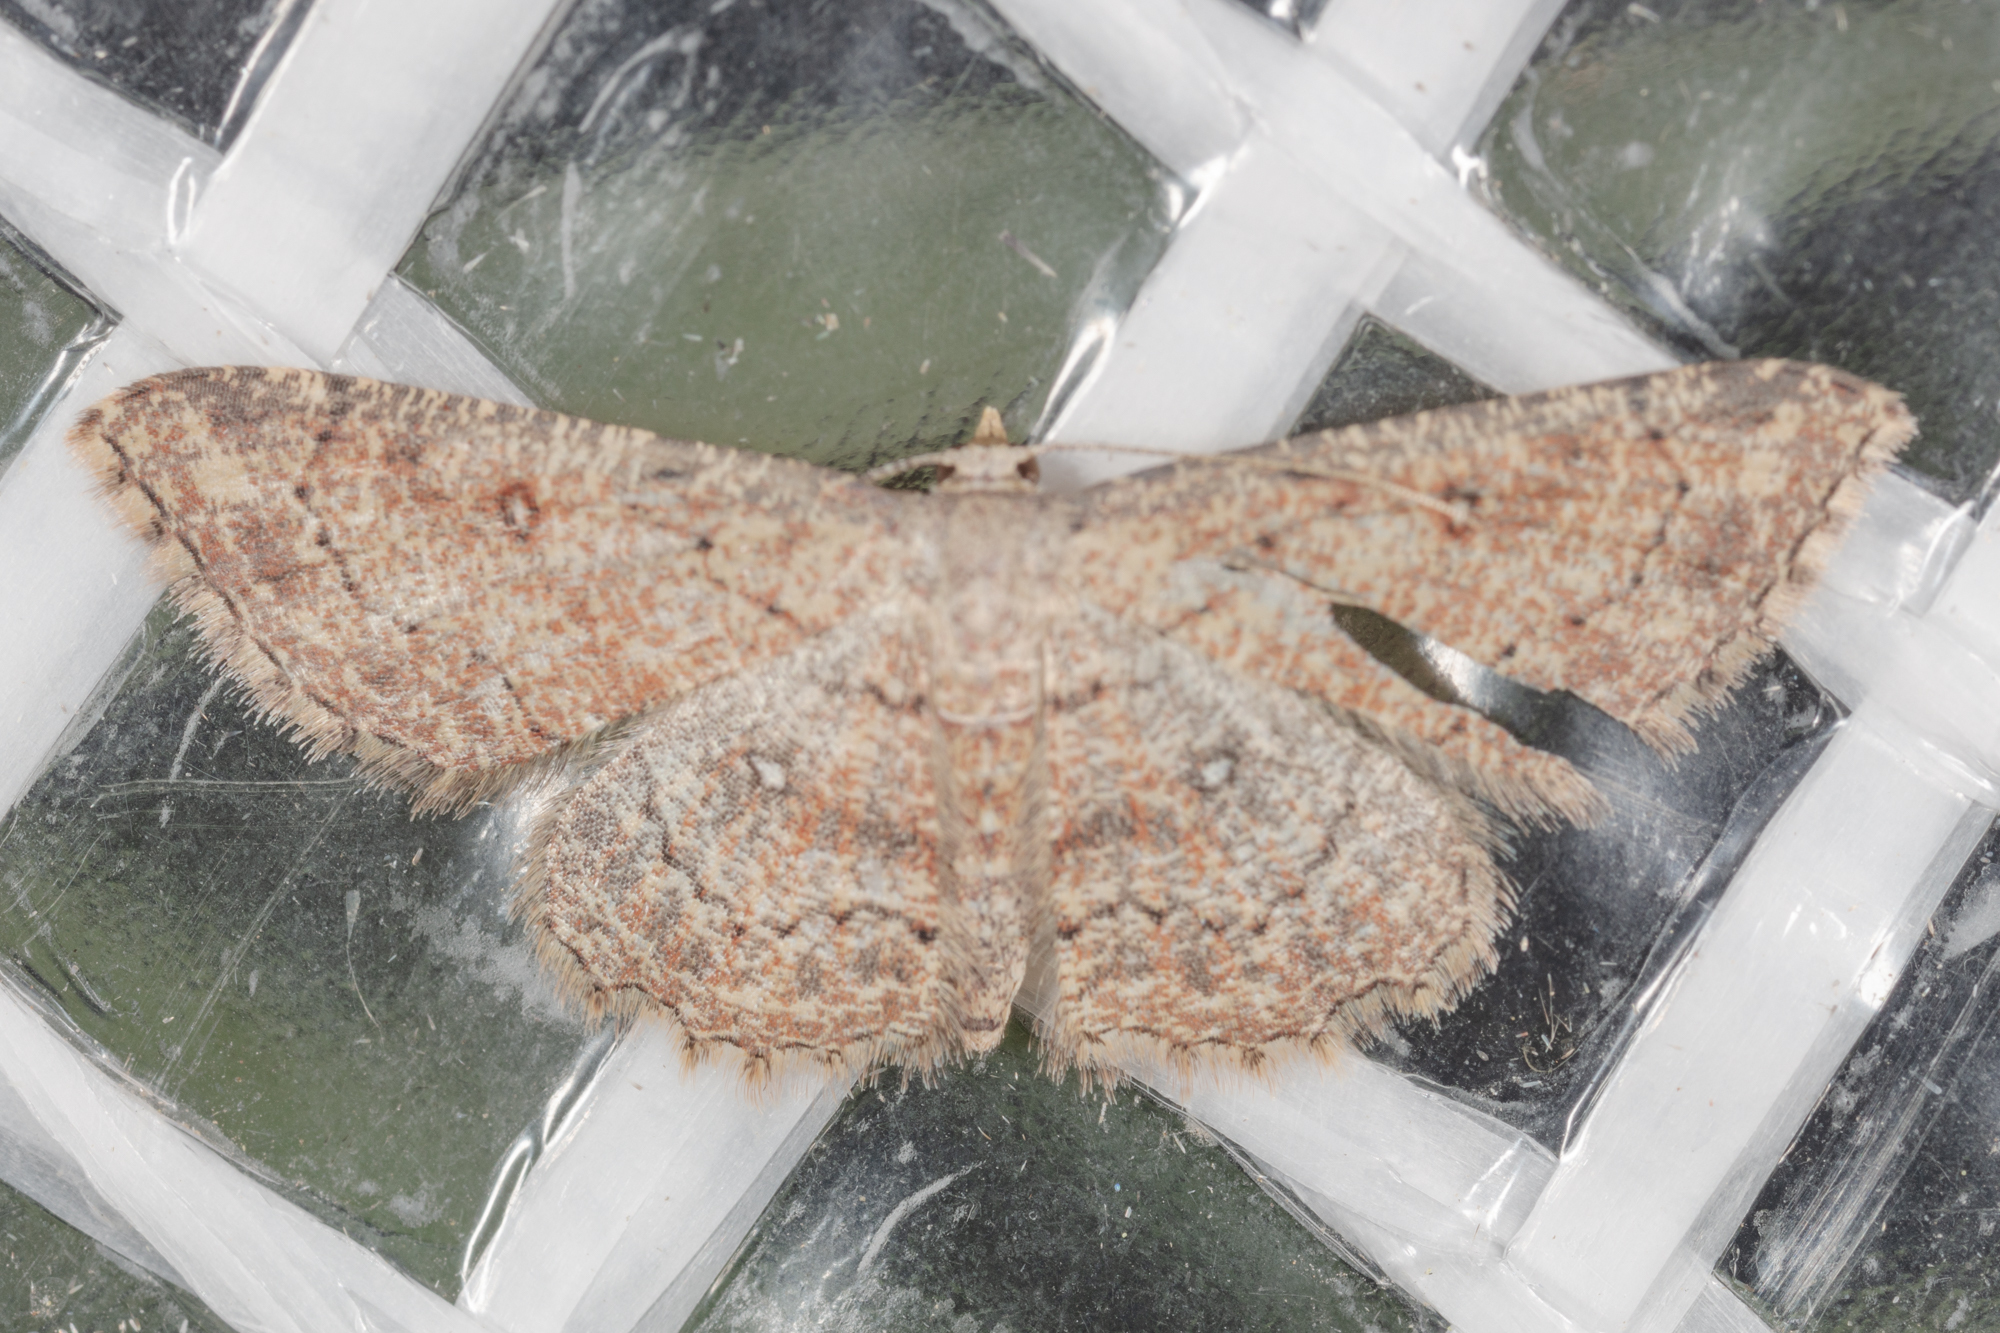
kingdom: Animalia
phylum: Arthropoda
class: Insecta
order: Lepidoptera
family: Geometridae
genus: Cyclophora
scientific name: Cyclophora nanaria
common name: Cankerworm
